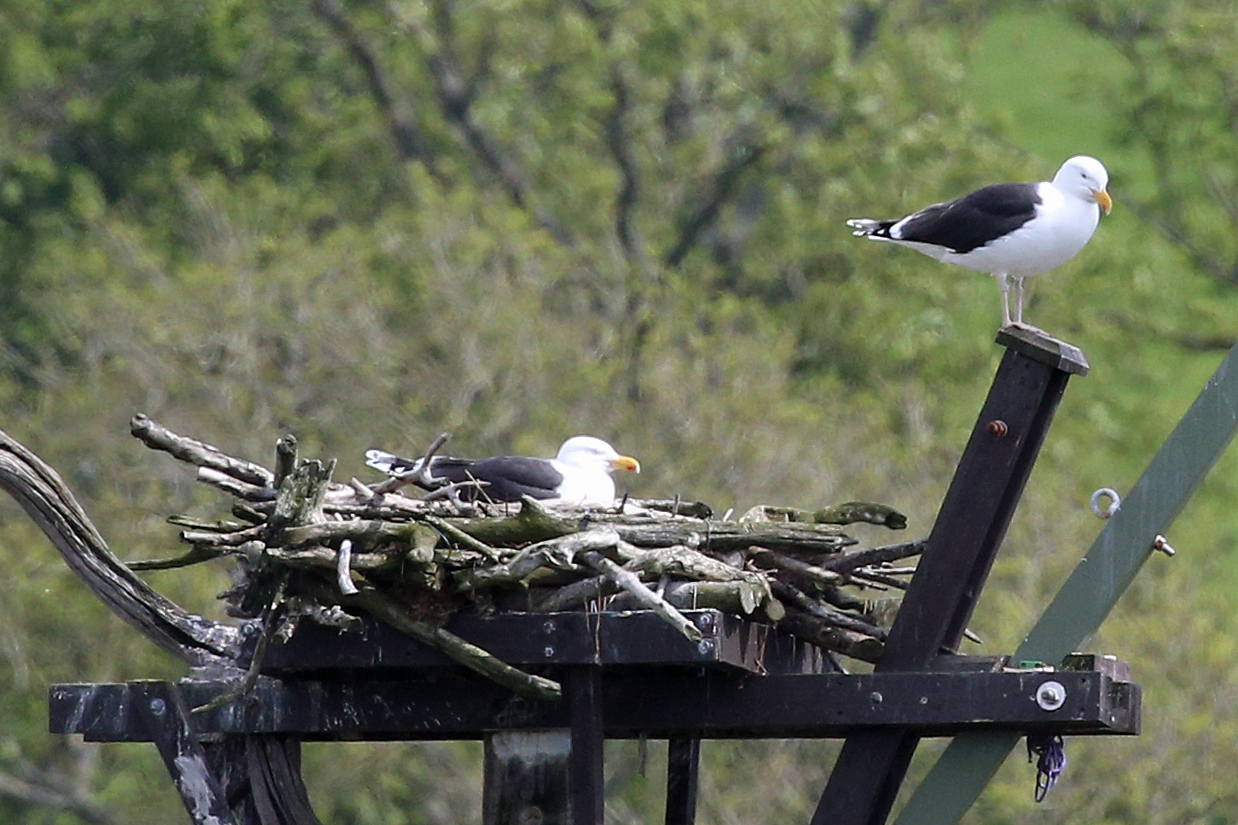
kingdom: Animalia
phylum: Chordata
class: Aves
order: Charadriiformes
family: Laridae
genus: Larus
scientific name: Larus marinus
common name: Great black-backed gull
